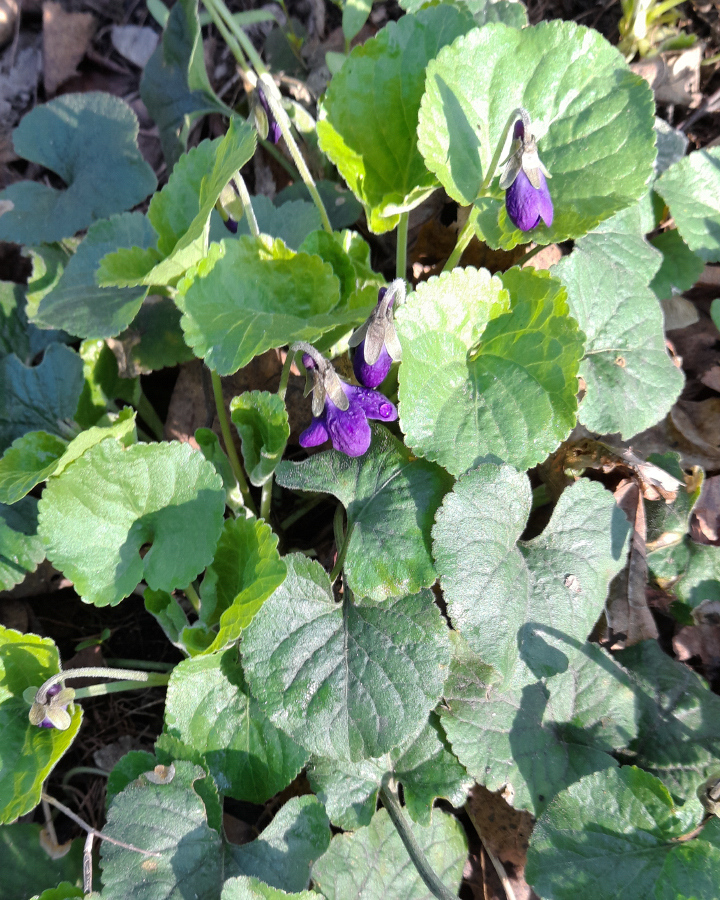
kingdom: Plantae
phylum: Tracheophyta
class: Magnoliopsida
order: Malpighiales
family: Violaceae
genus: Viola
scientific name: Viola odorata
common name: Sweet violet
